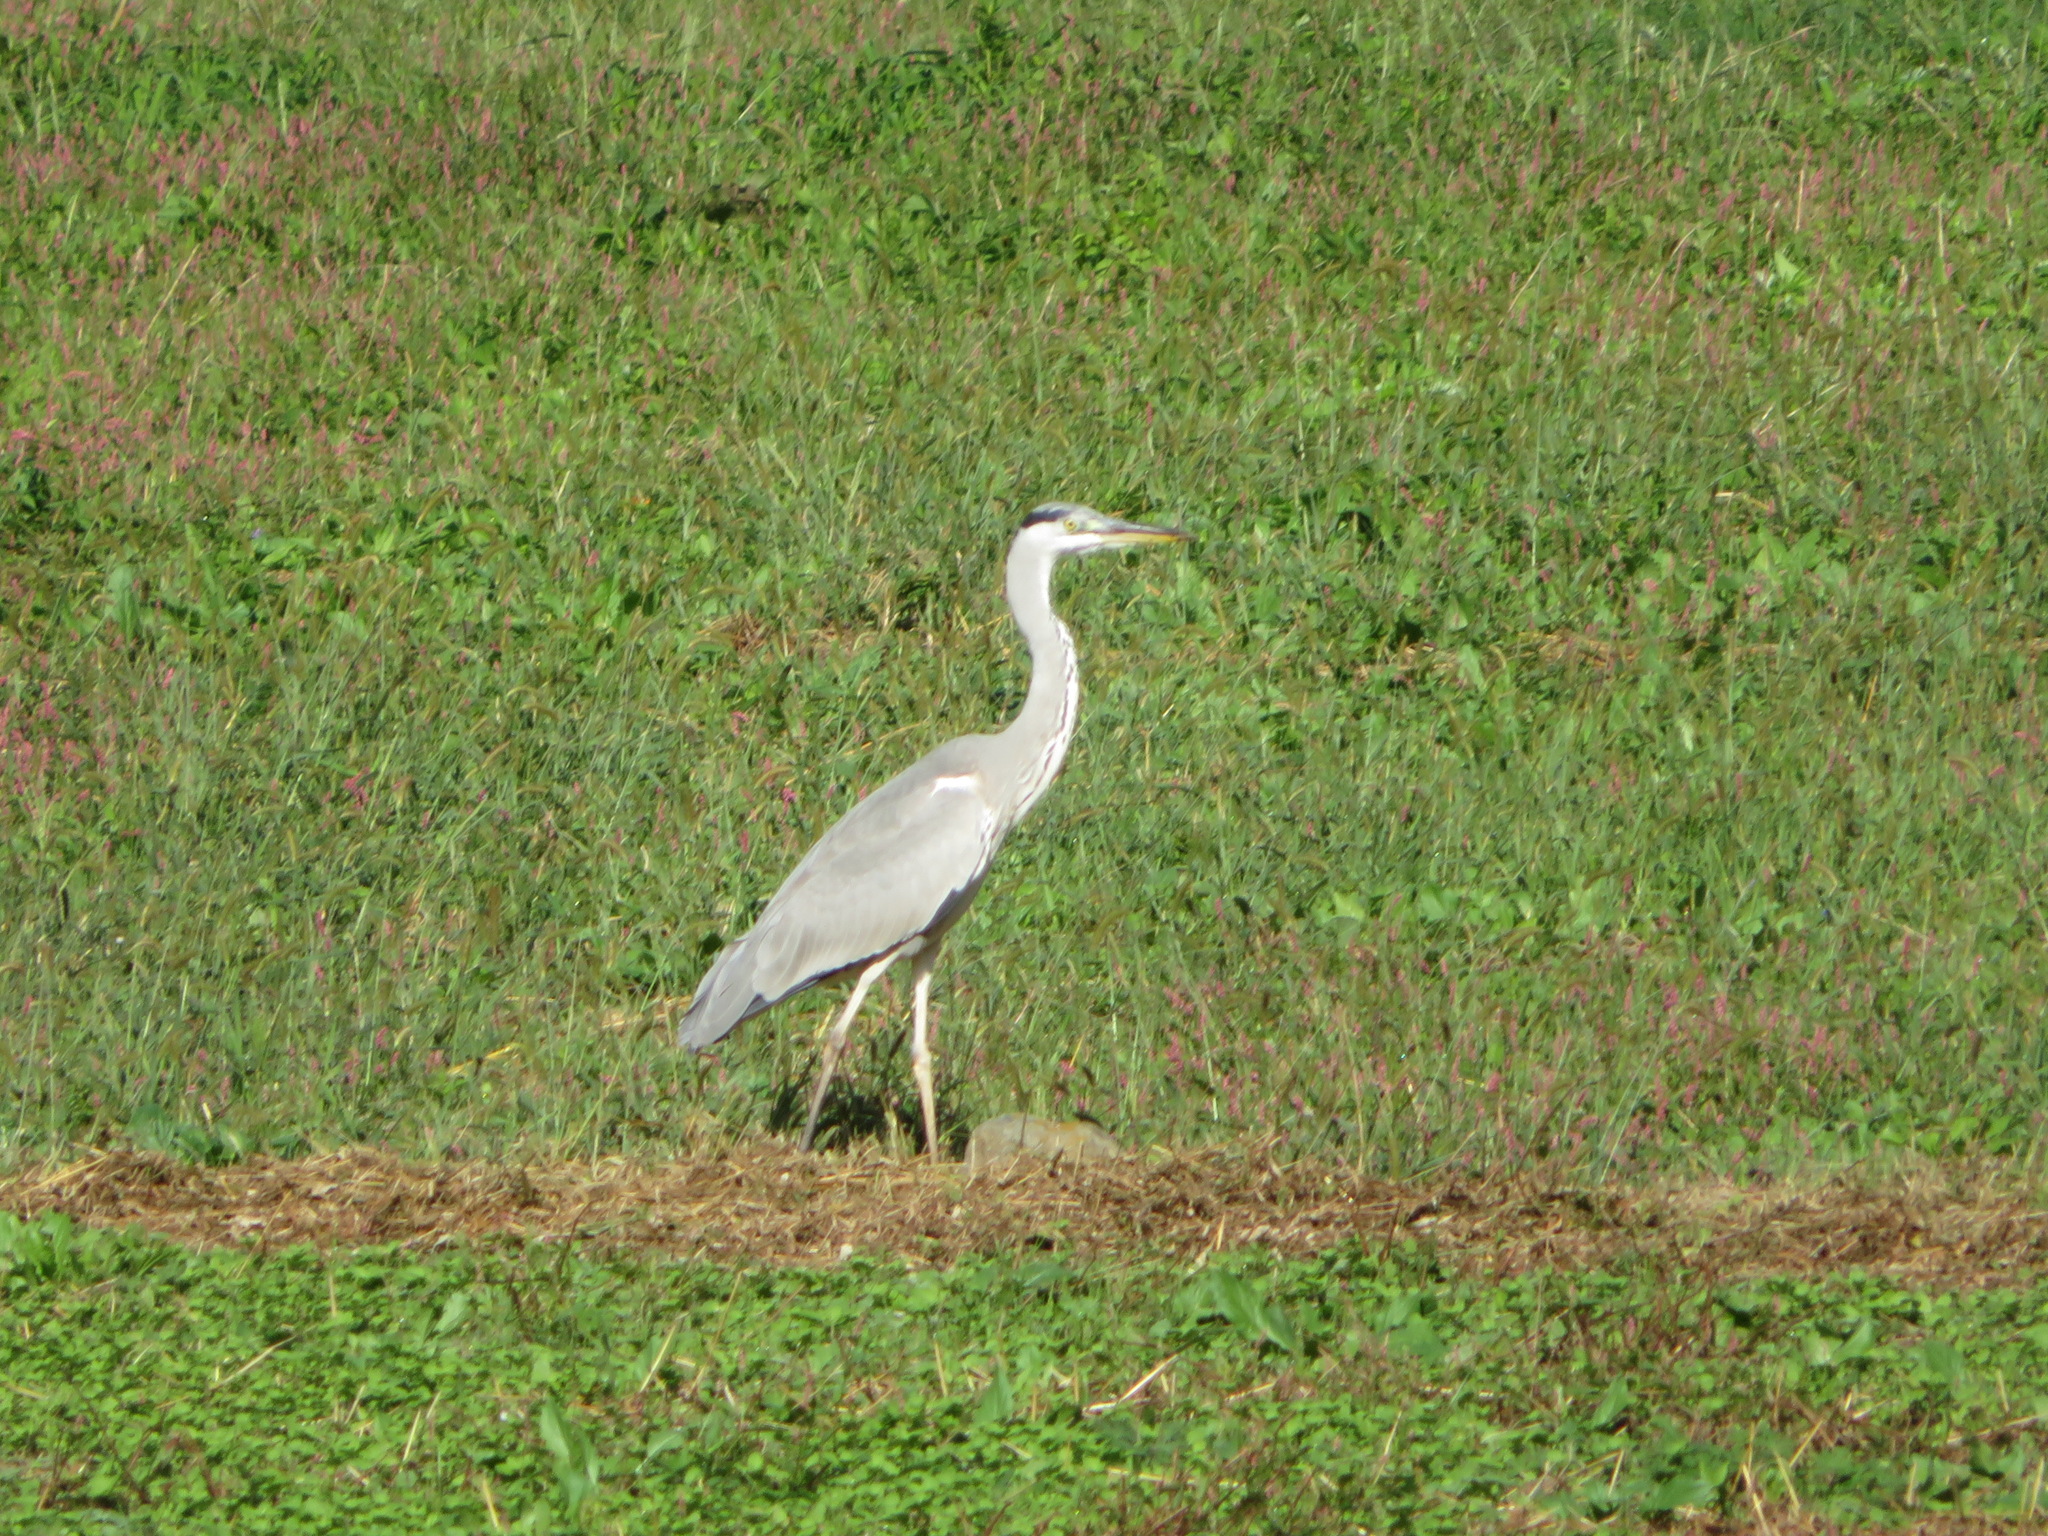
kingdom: Animalia
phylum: Chordata
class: Aves
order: Pelecaniformes
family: Ardeidae
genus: Ardea
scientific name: Ardea cinerea
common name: Grey heron
